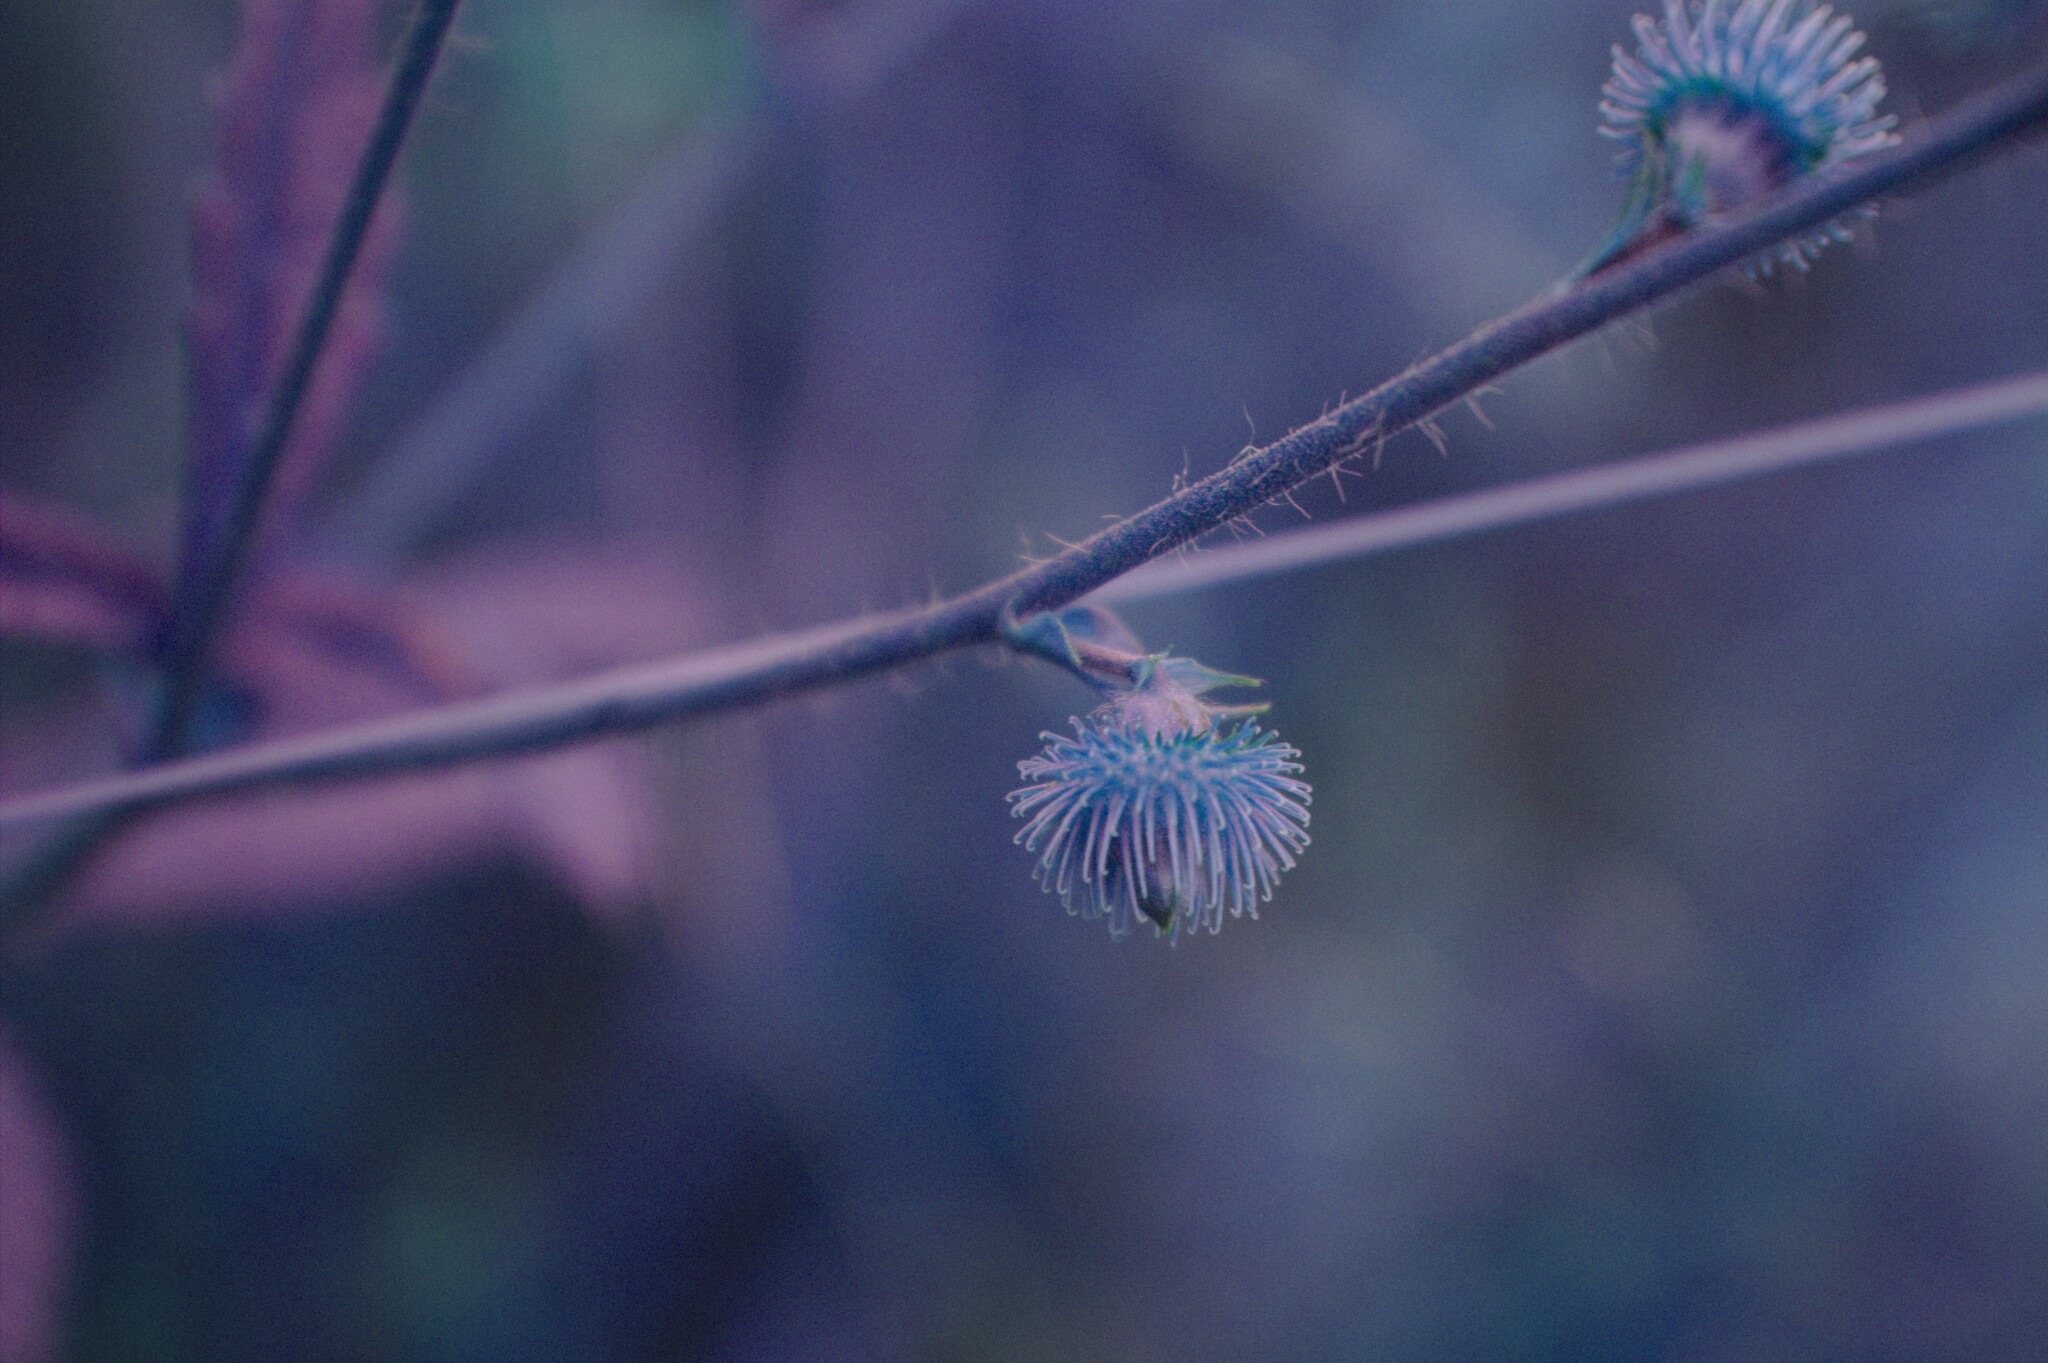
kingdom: Plantae
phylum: Tracheophyta
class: Magnoliopsida
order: Rosales
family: Rosaceae
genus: Agrimonia
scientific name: Agrimonia gryposepala
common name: Common agrimony
